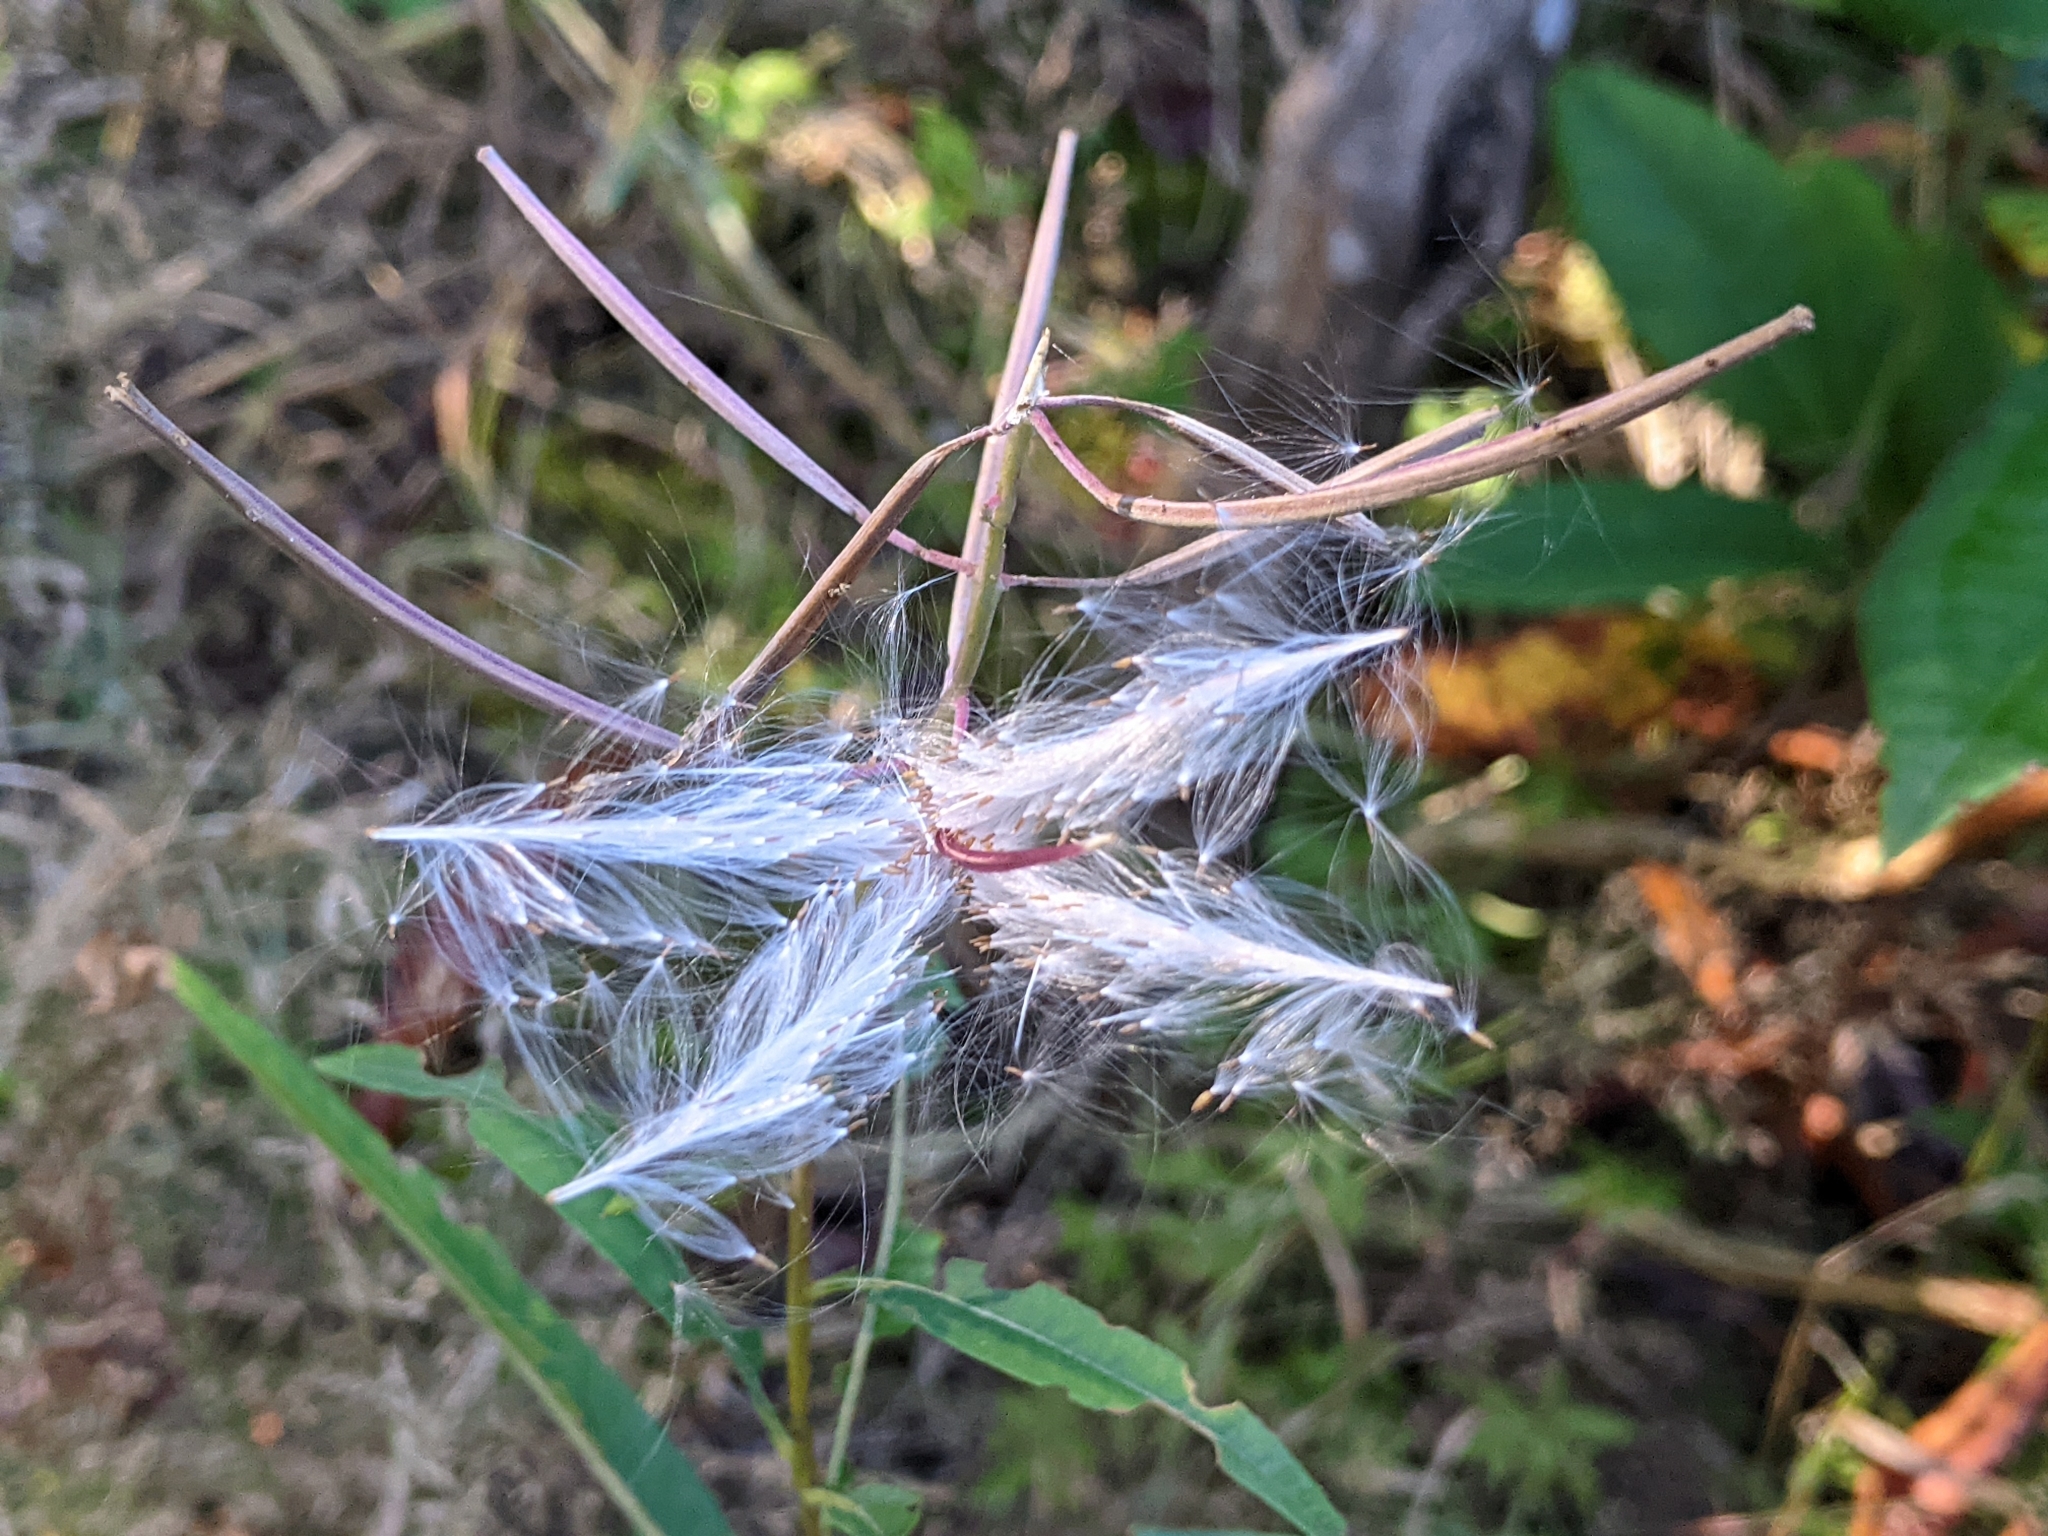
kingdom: Plantae
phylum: Tracheophyta
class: Magnoliopsida
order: Myrtales
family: Onagraceae
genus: Chamaenerion
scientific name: Chamaenerion angustifolium
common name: Fireweed
